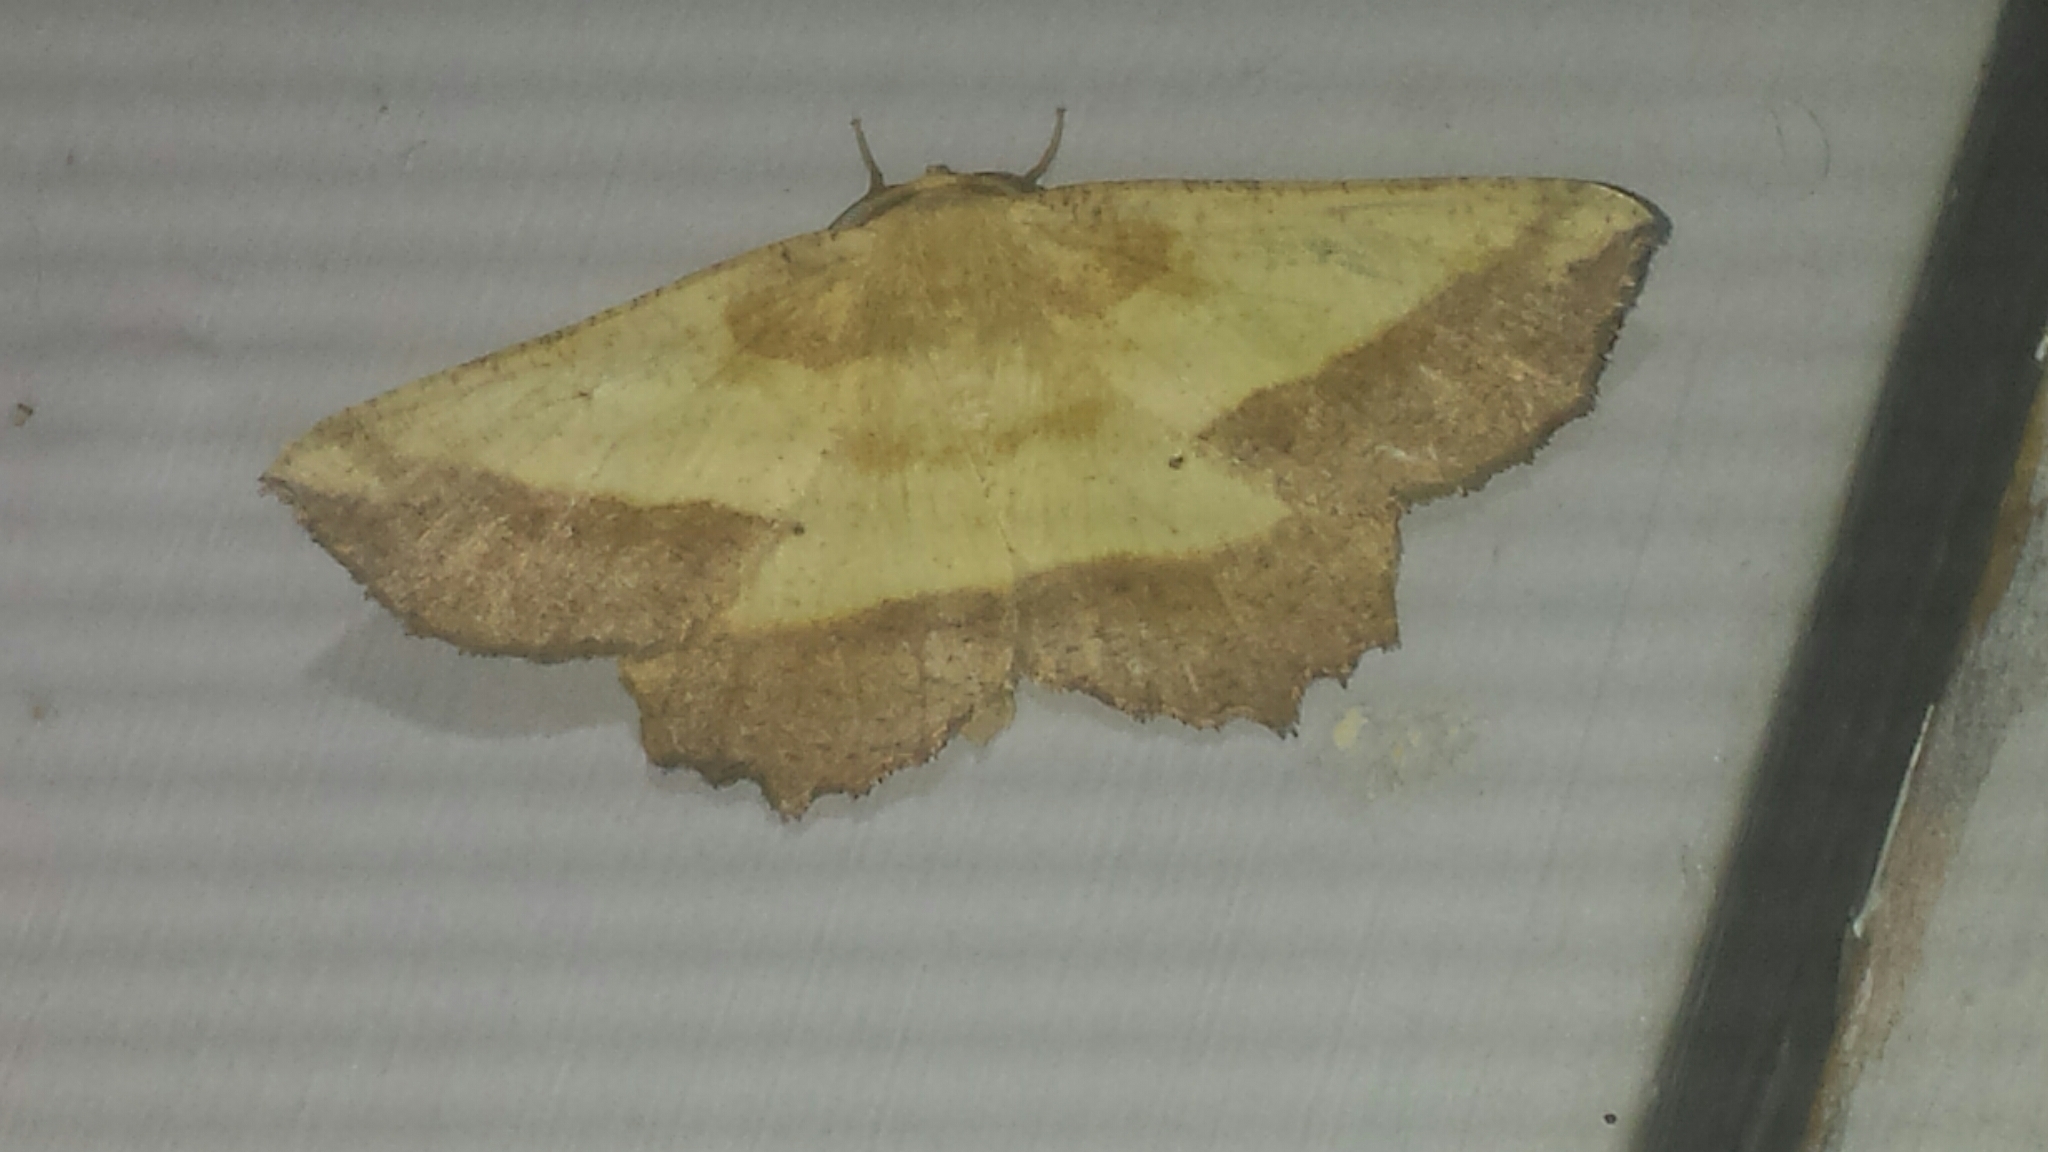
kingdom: Animalia
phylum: Arthropoda
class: Insecta
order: Lepidoptera
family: Geometridae
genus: Euchlaena
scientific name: Euchlaena serrata
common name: Saw wing
